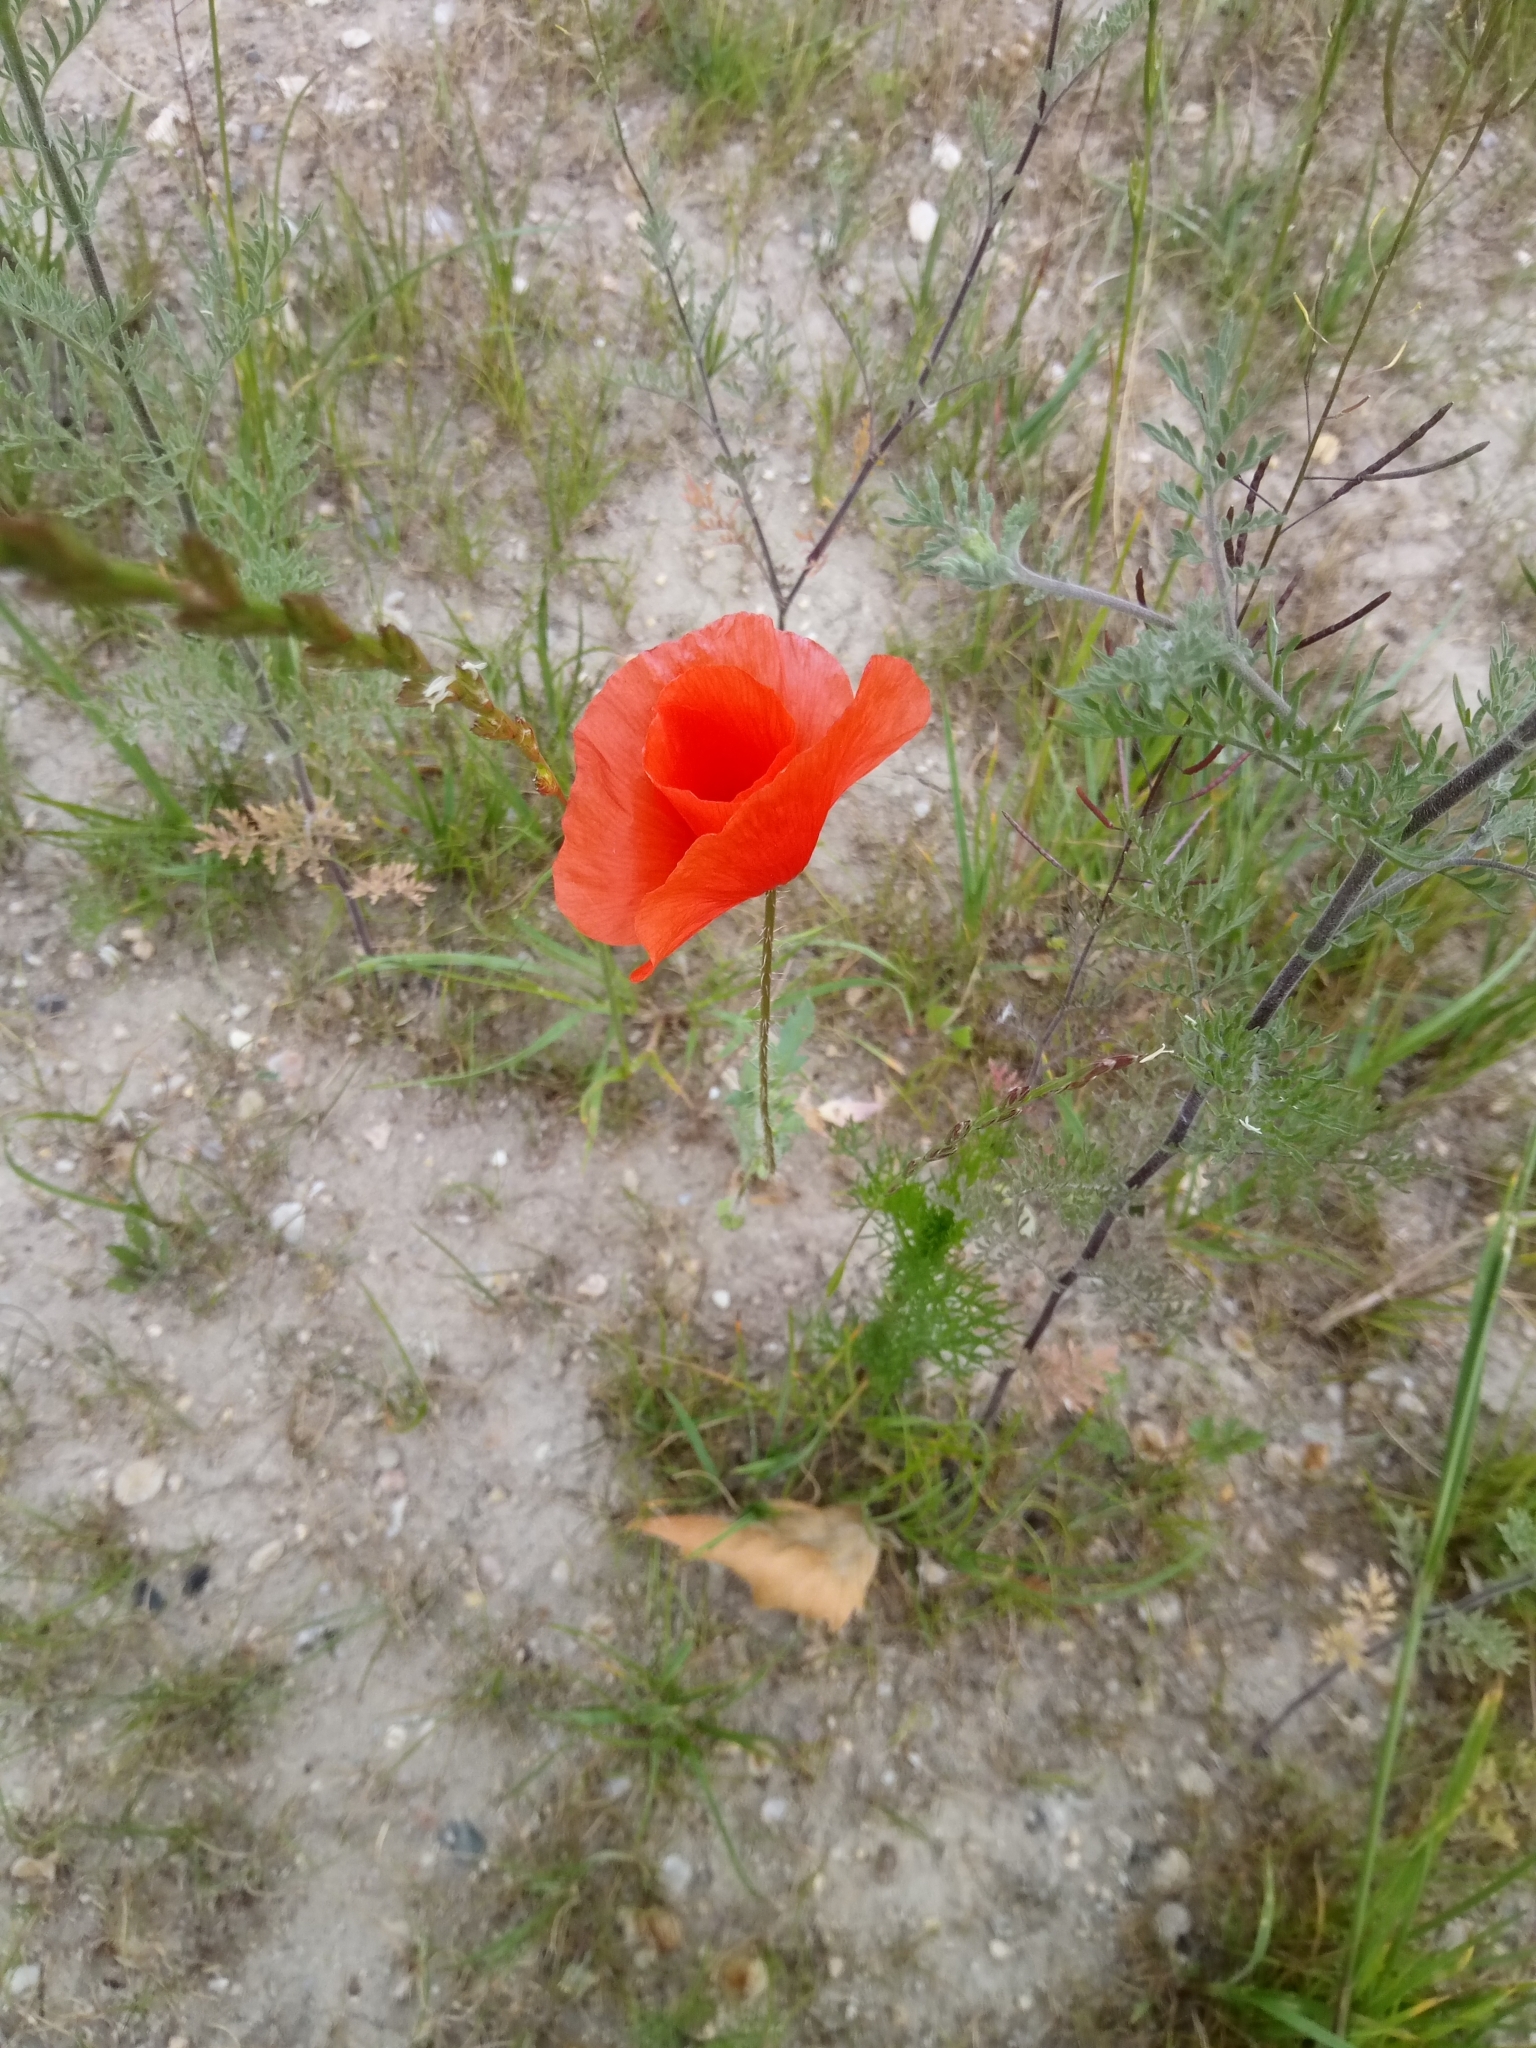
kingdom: Plantae
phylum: Tracheophyta
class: Magnoliopsida
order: Ranunculales
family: Papaveraceae
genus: Papaver
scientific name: Papaver rhoeas
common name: Corn poppy
